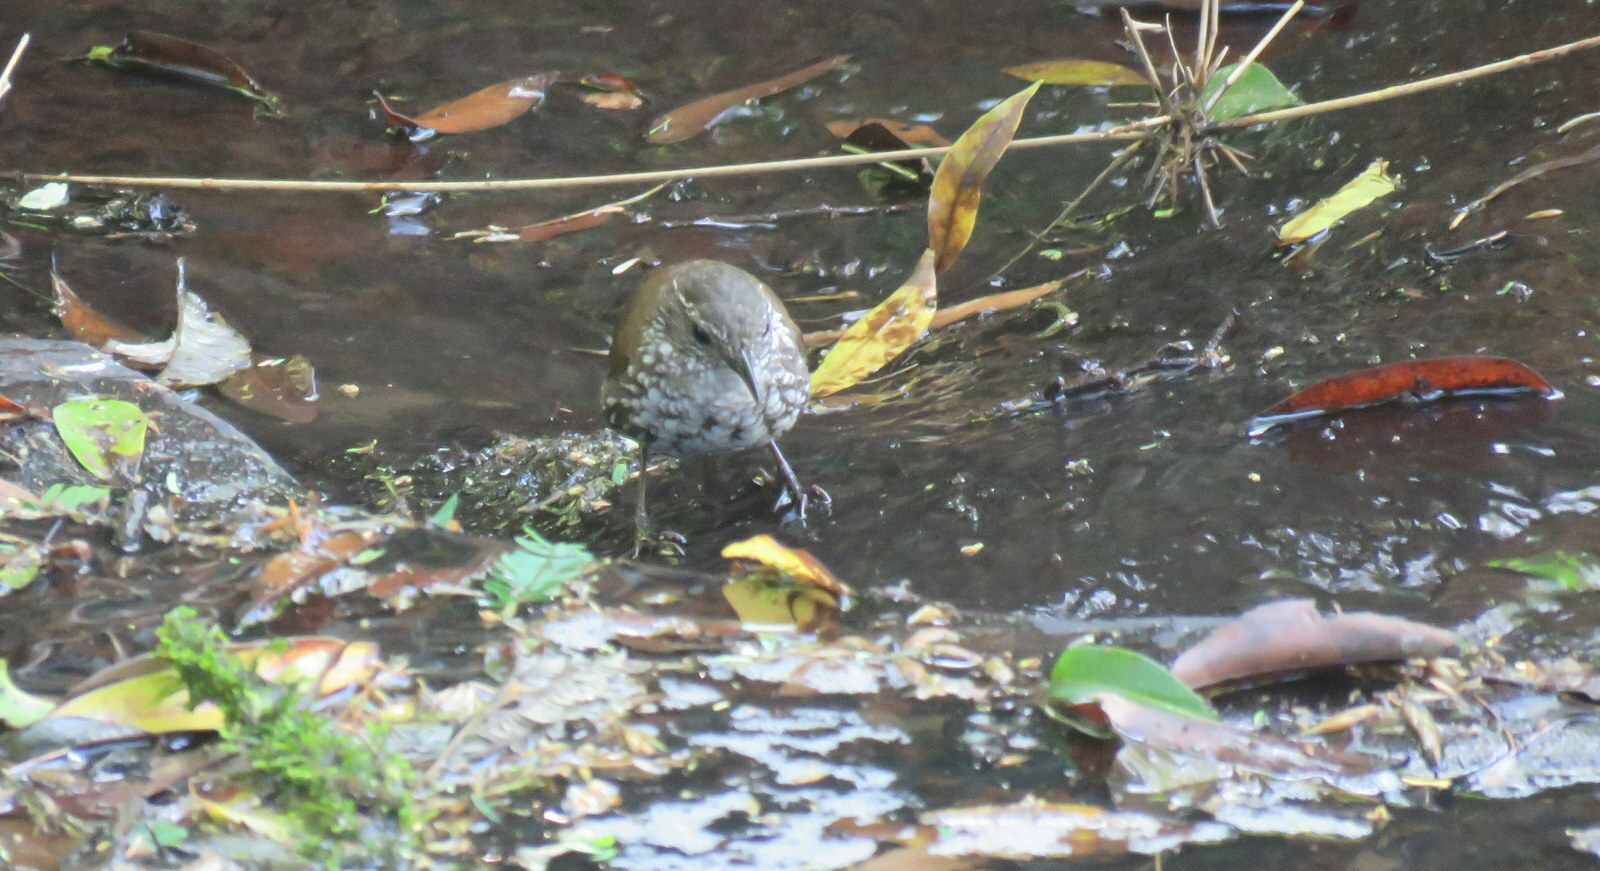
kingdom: Animalia
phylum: Chordata
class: Aves
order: Passeriformes
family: Furnariidae
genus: Lochmias
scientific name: Lochmias nematura
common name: Sharp-tailed streamcreeper
